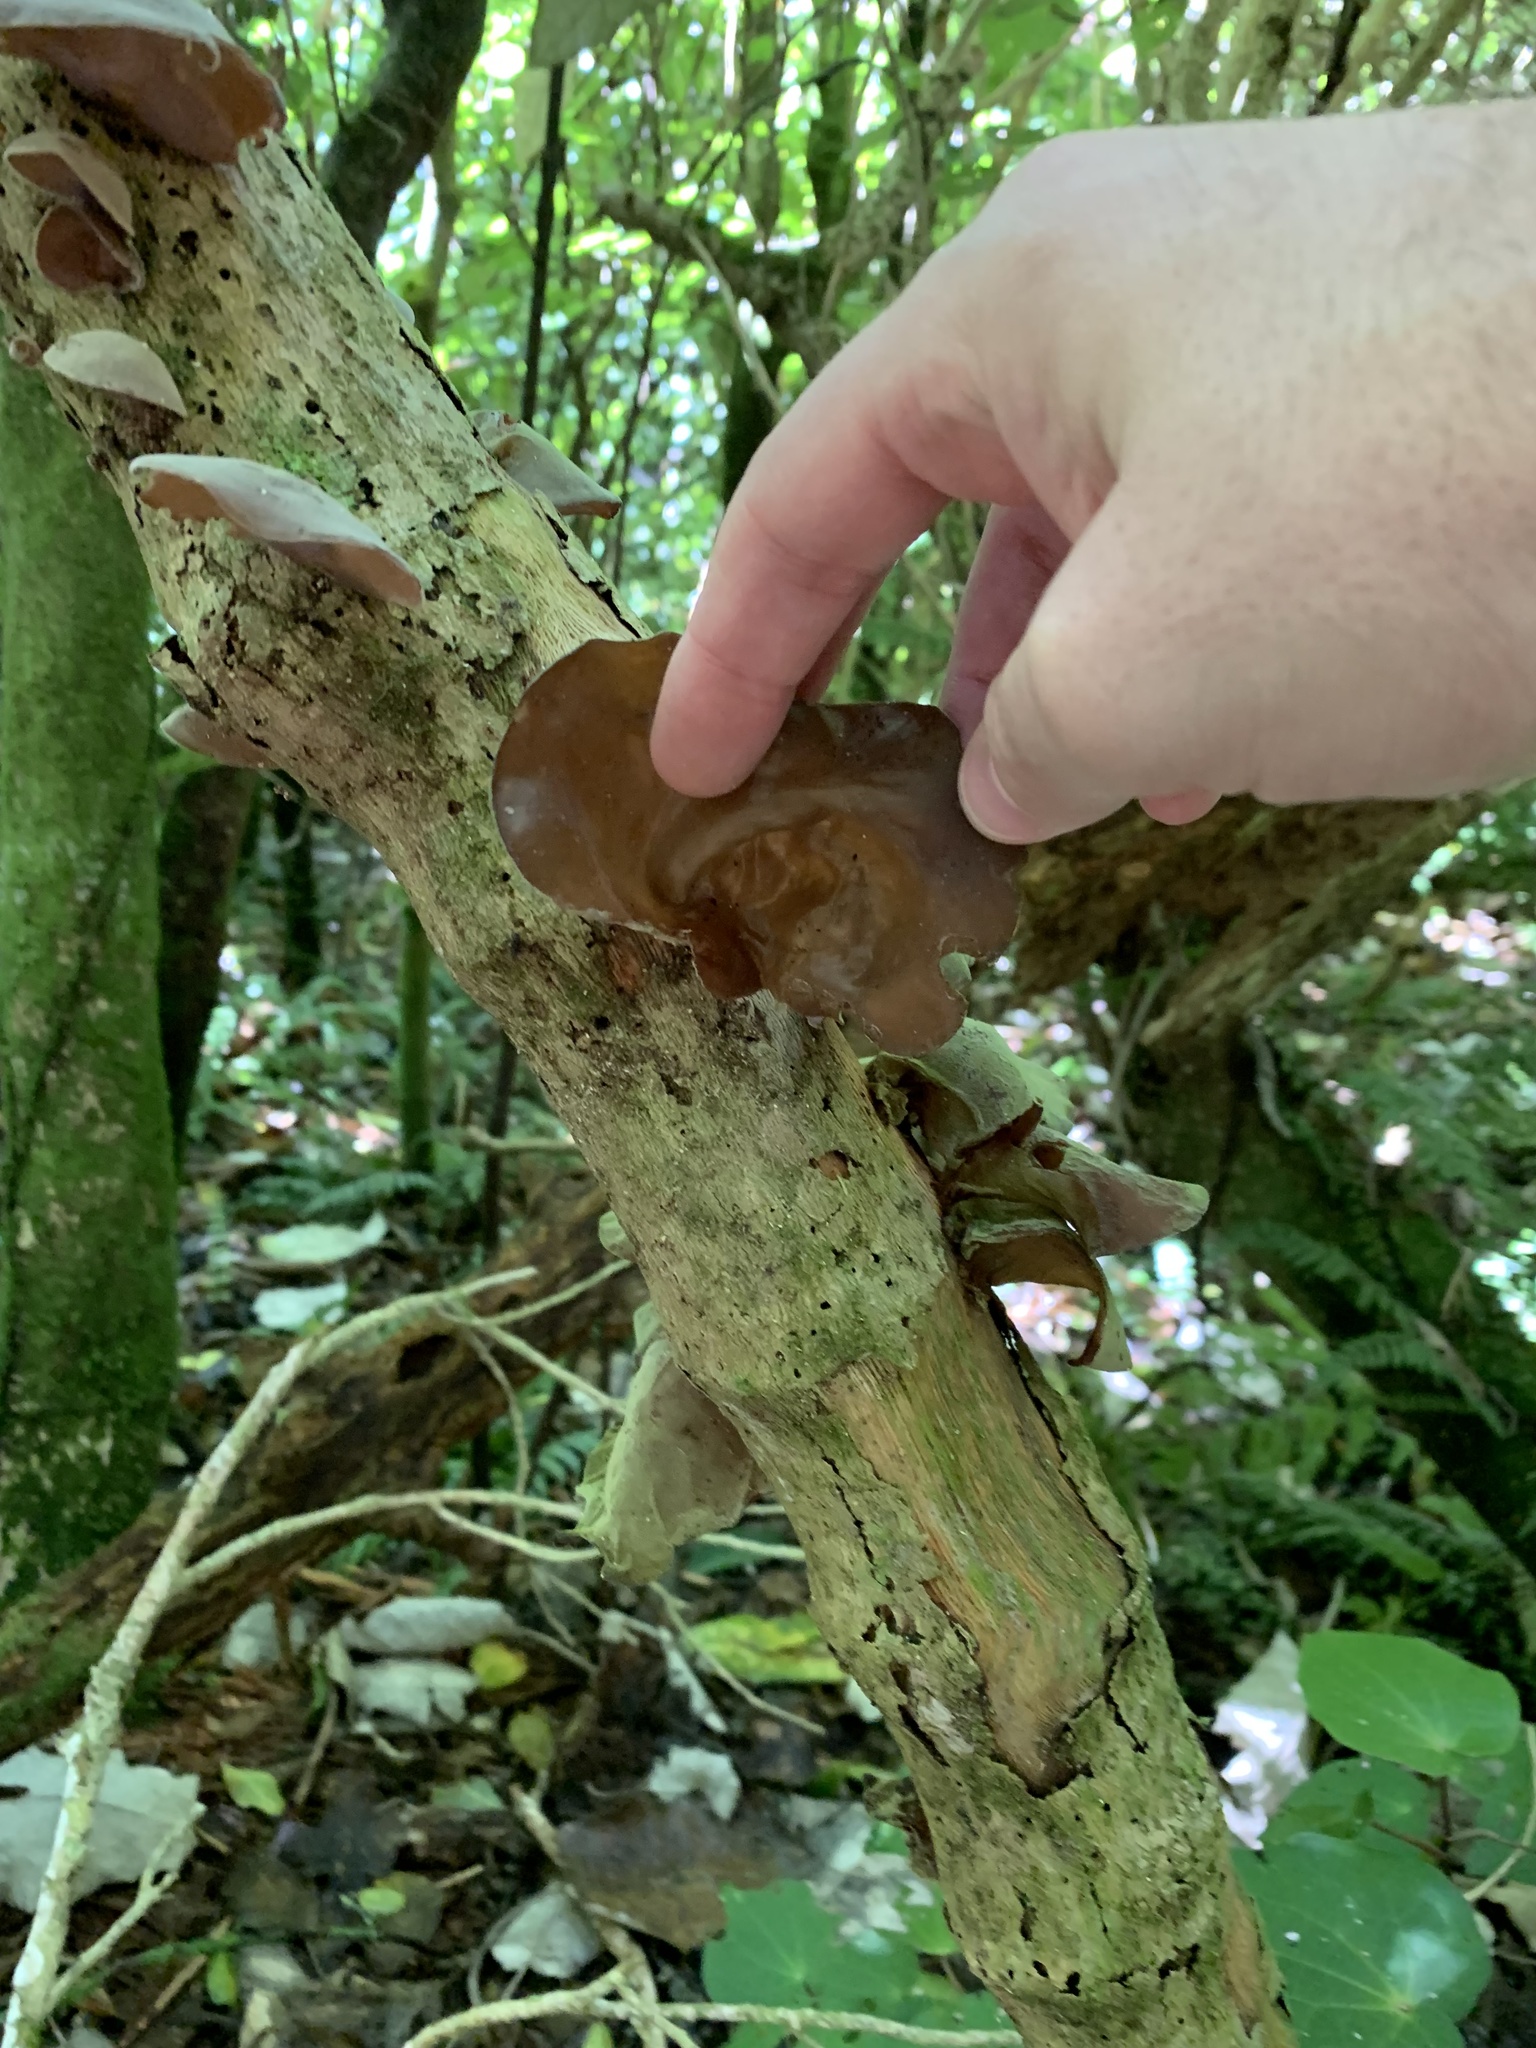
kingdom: Fungi
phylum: Basidiomycota
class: Agaricomycetes
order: Auriculariales
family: Auriculariaceae
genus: Auricularia
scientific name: Auricularia cornea
